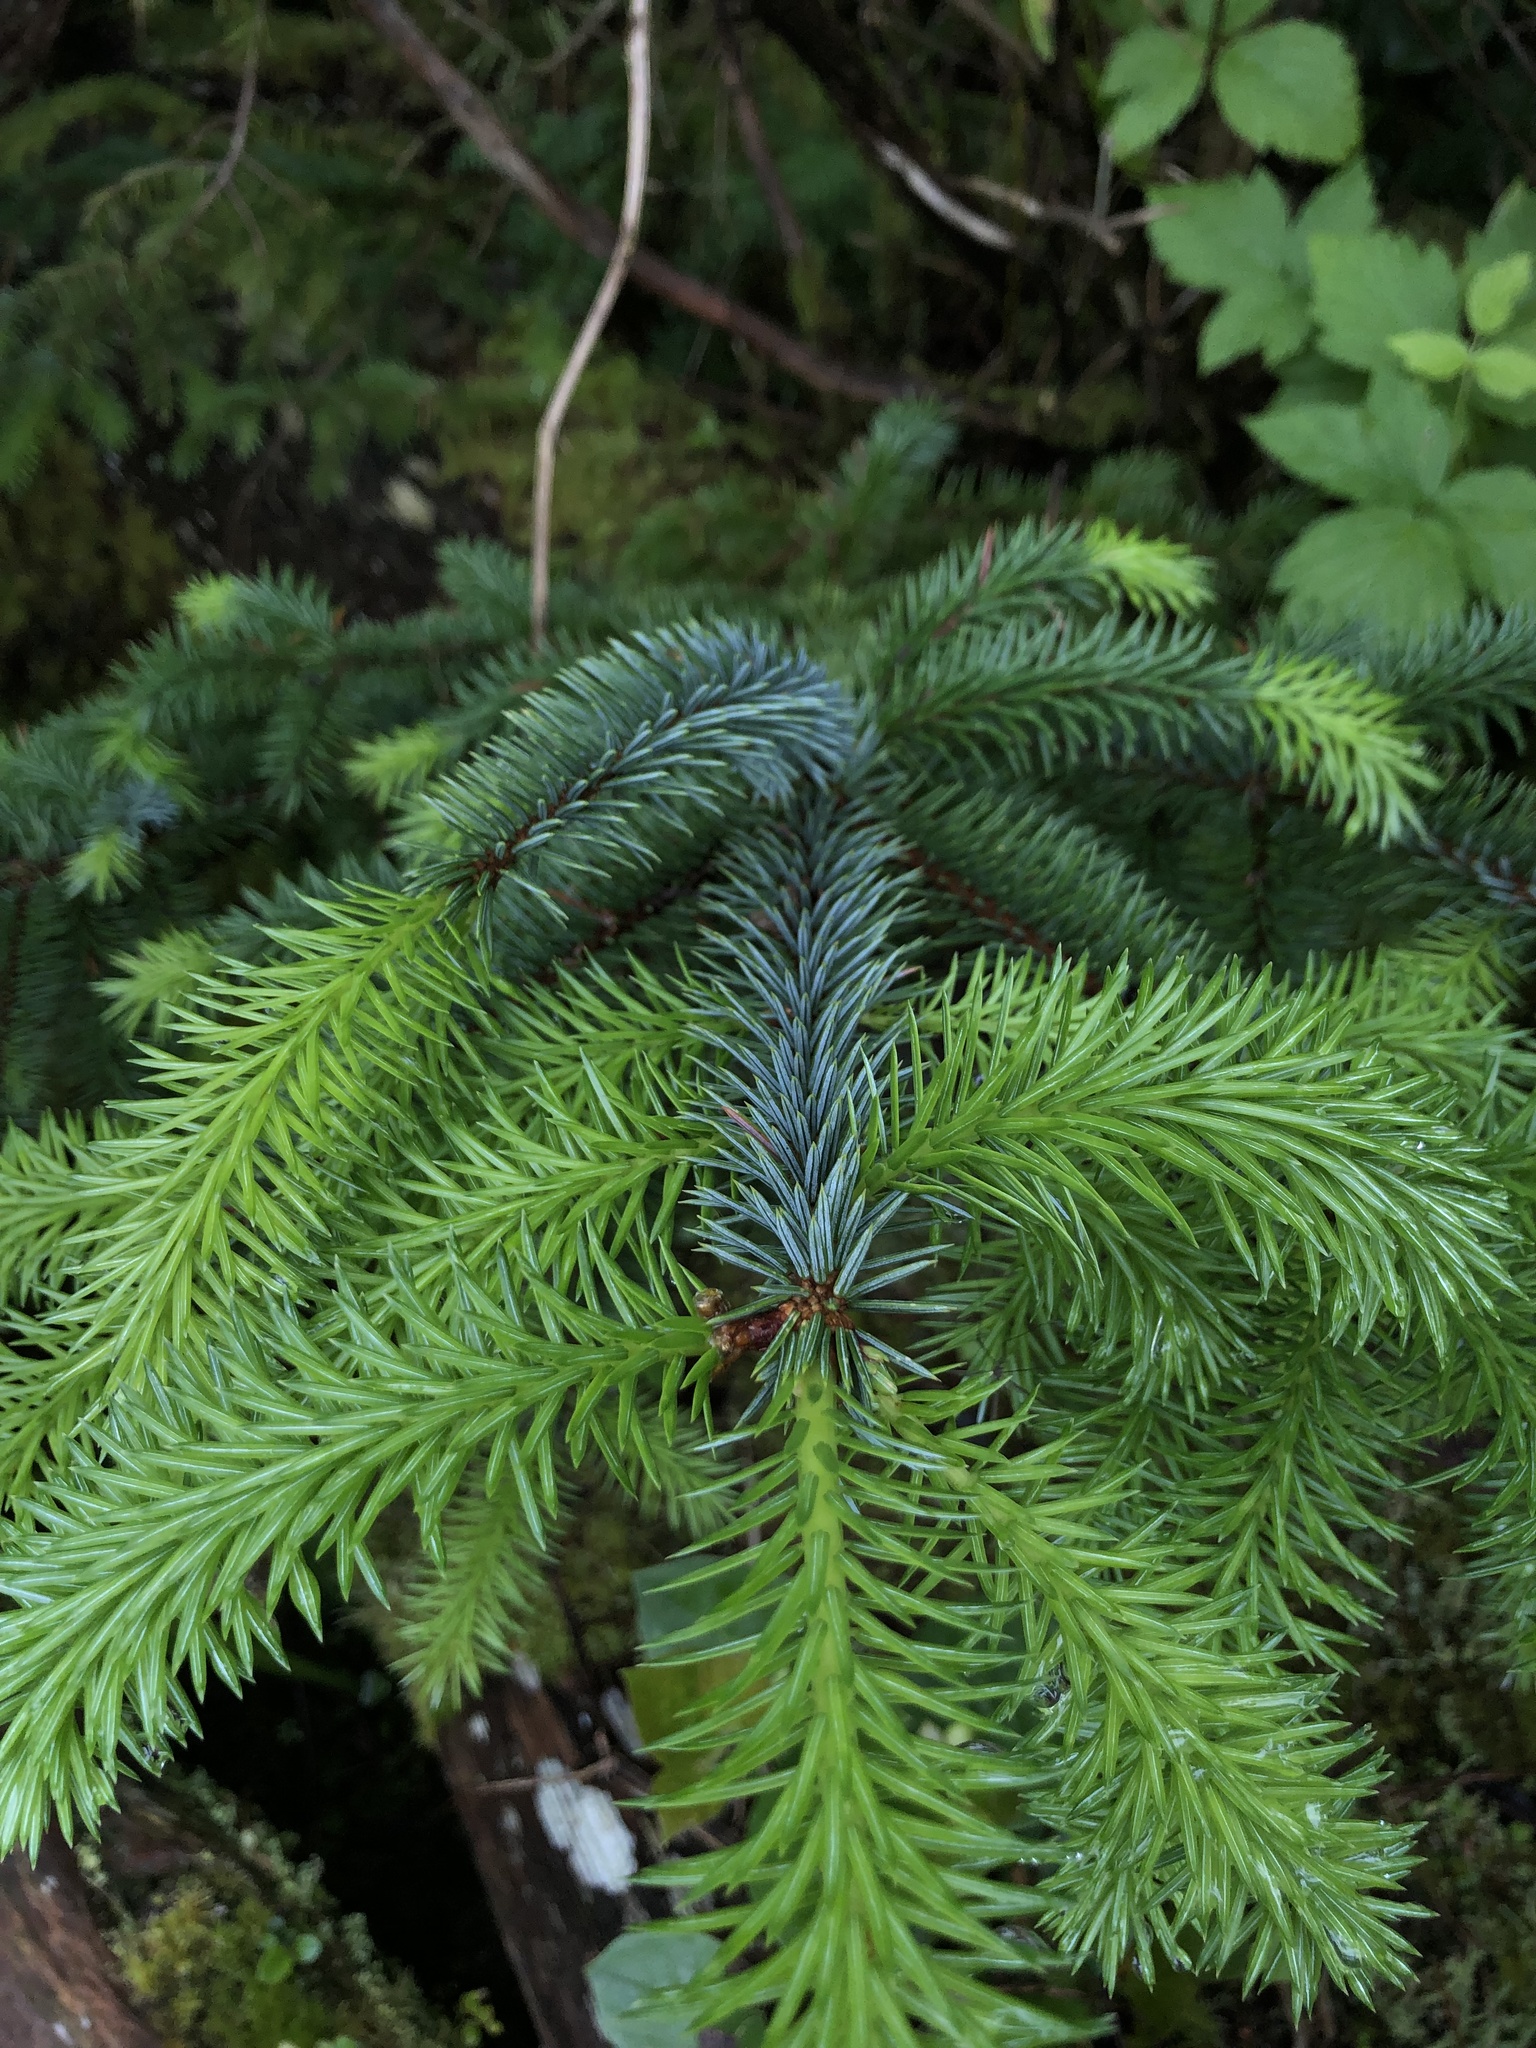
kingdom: Plantae
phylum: Tracheophyta
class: Pinopsida
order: Pinales
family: Pinaceae
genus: Picea
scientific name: Picea sitchensis
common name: Sitka spruce
